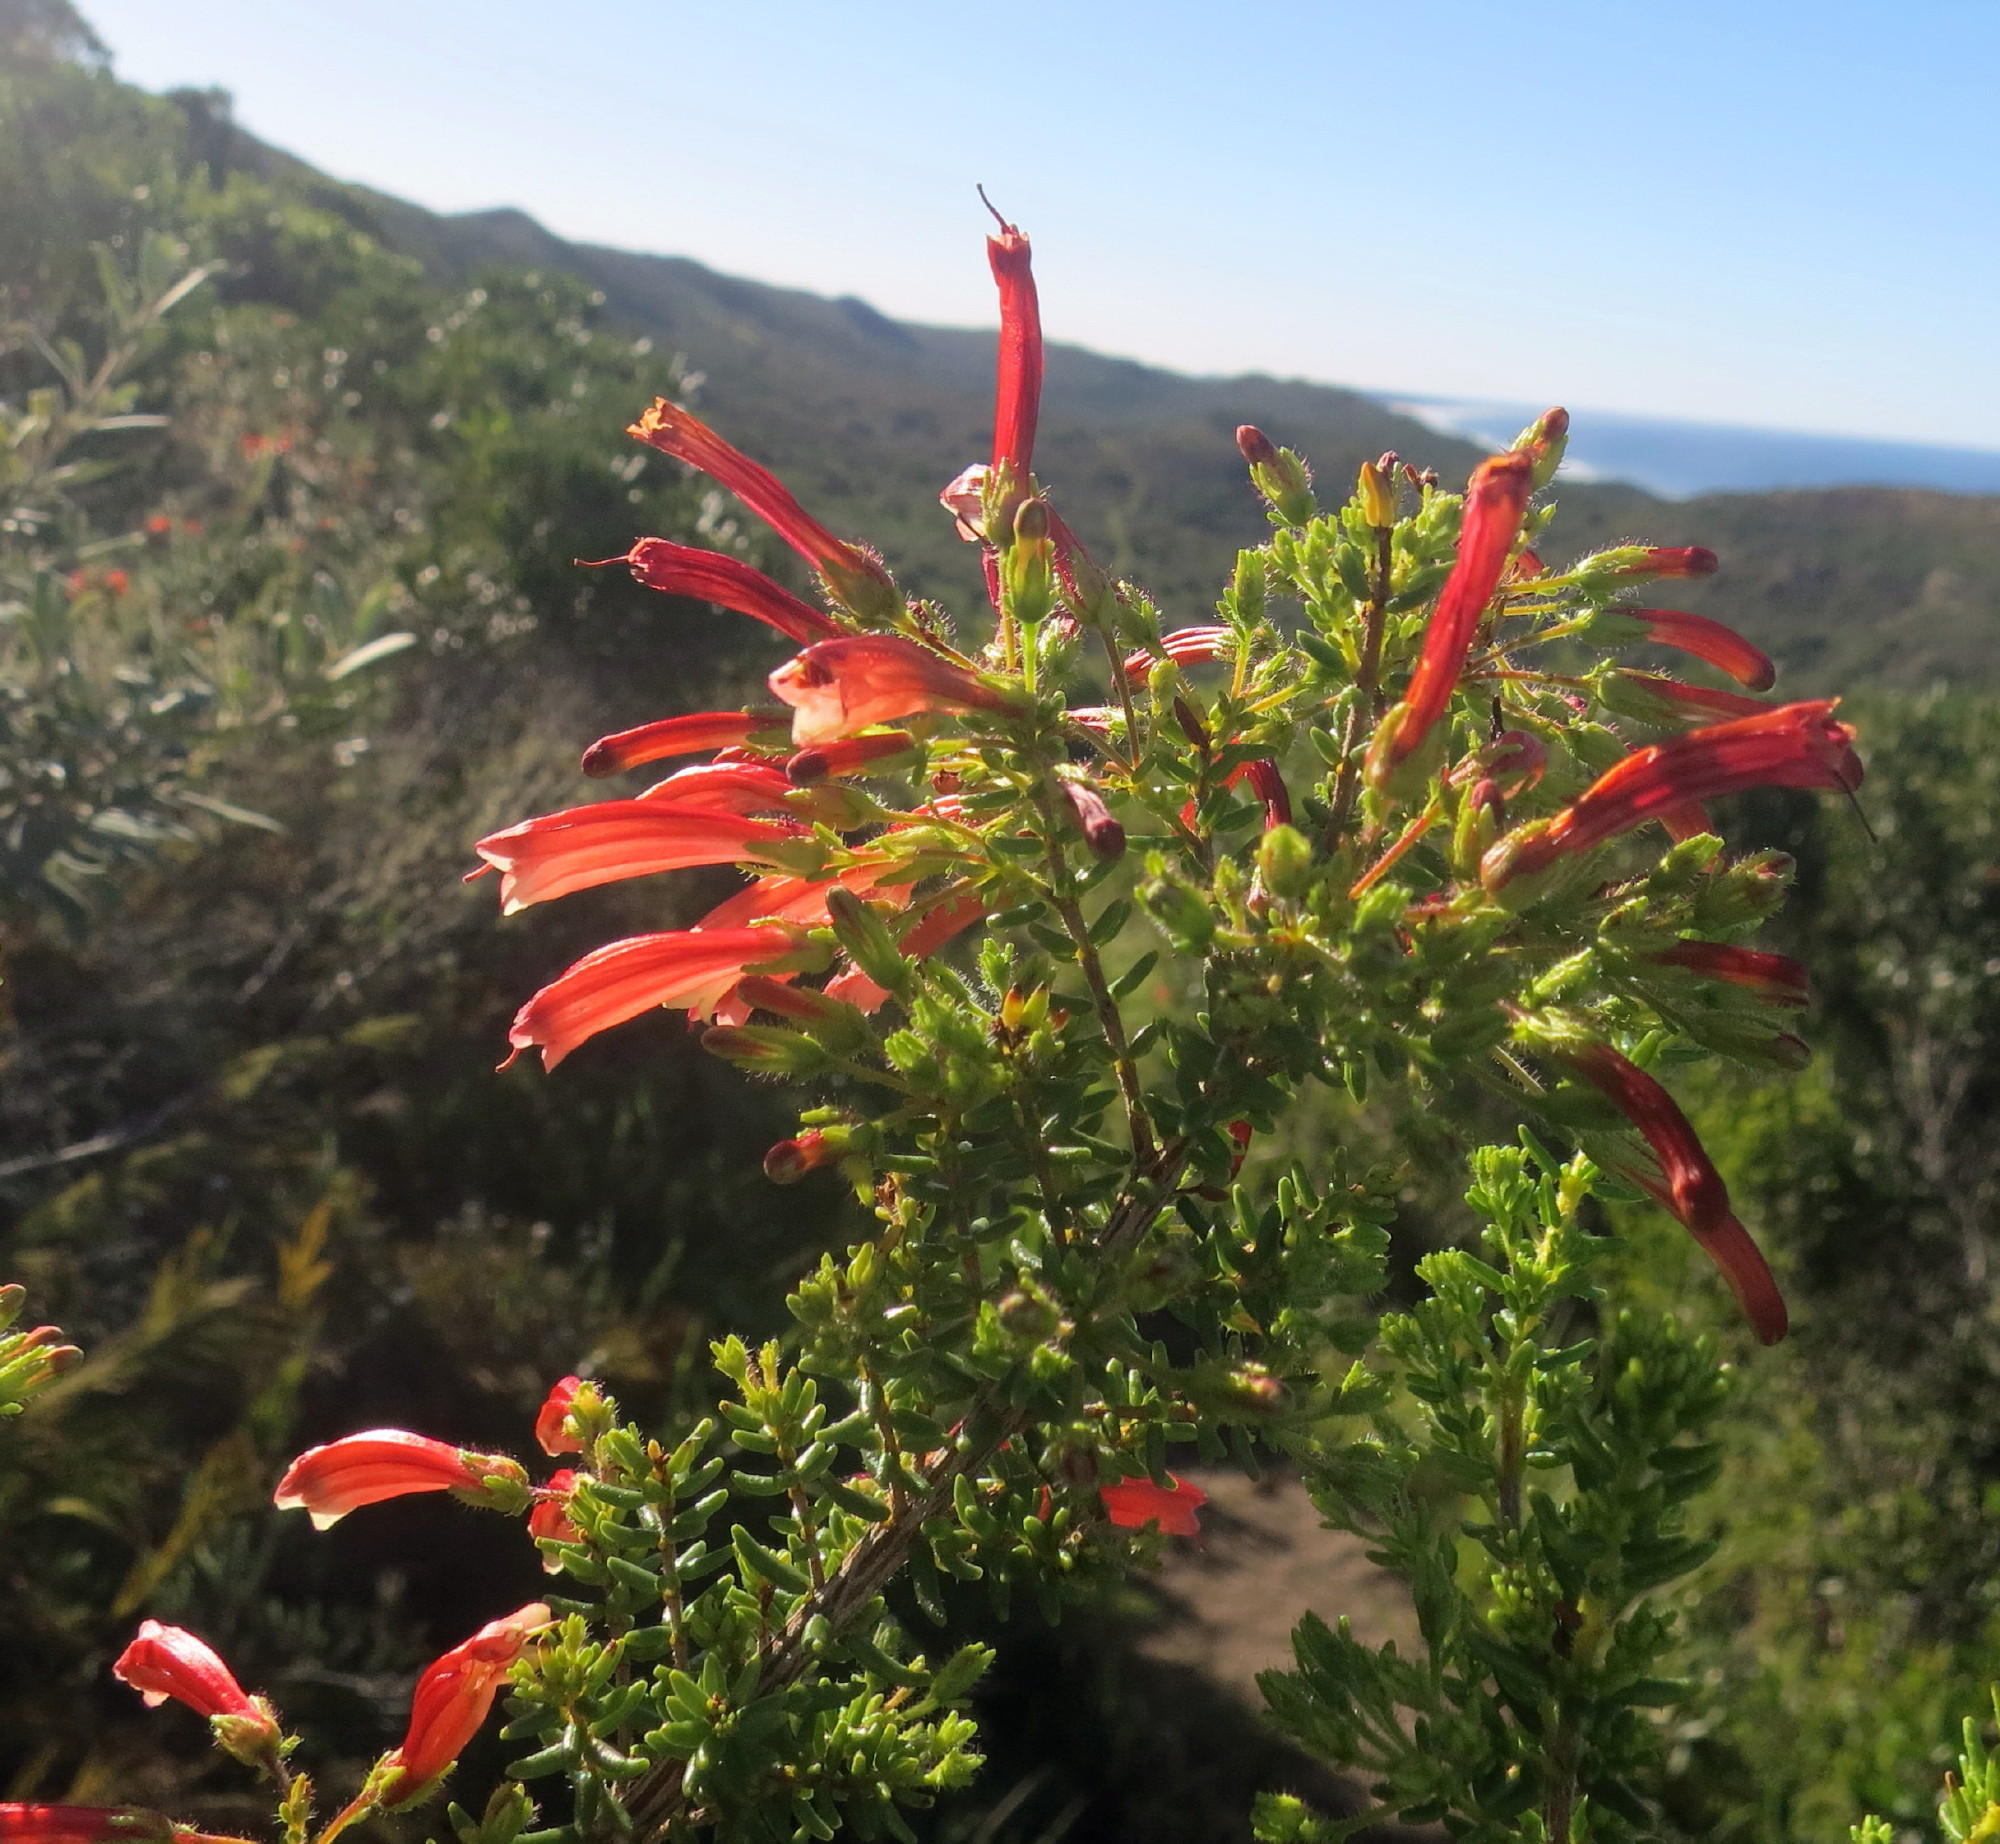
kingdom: Plantae
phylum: Tracheophyta
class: Magnoliopsida
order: Ericales
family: Ericaceae
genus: Erica
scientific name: Erica glandulosa
